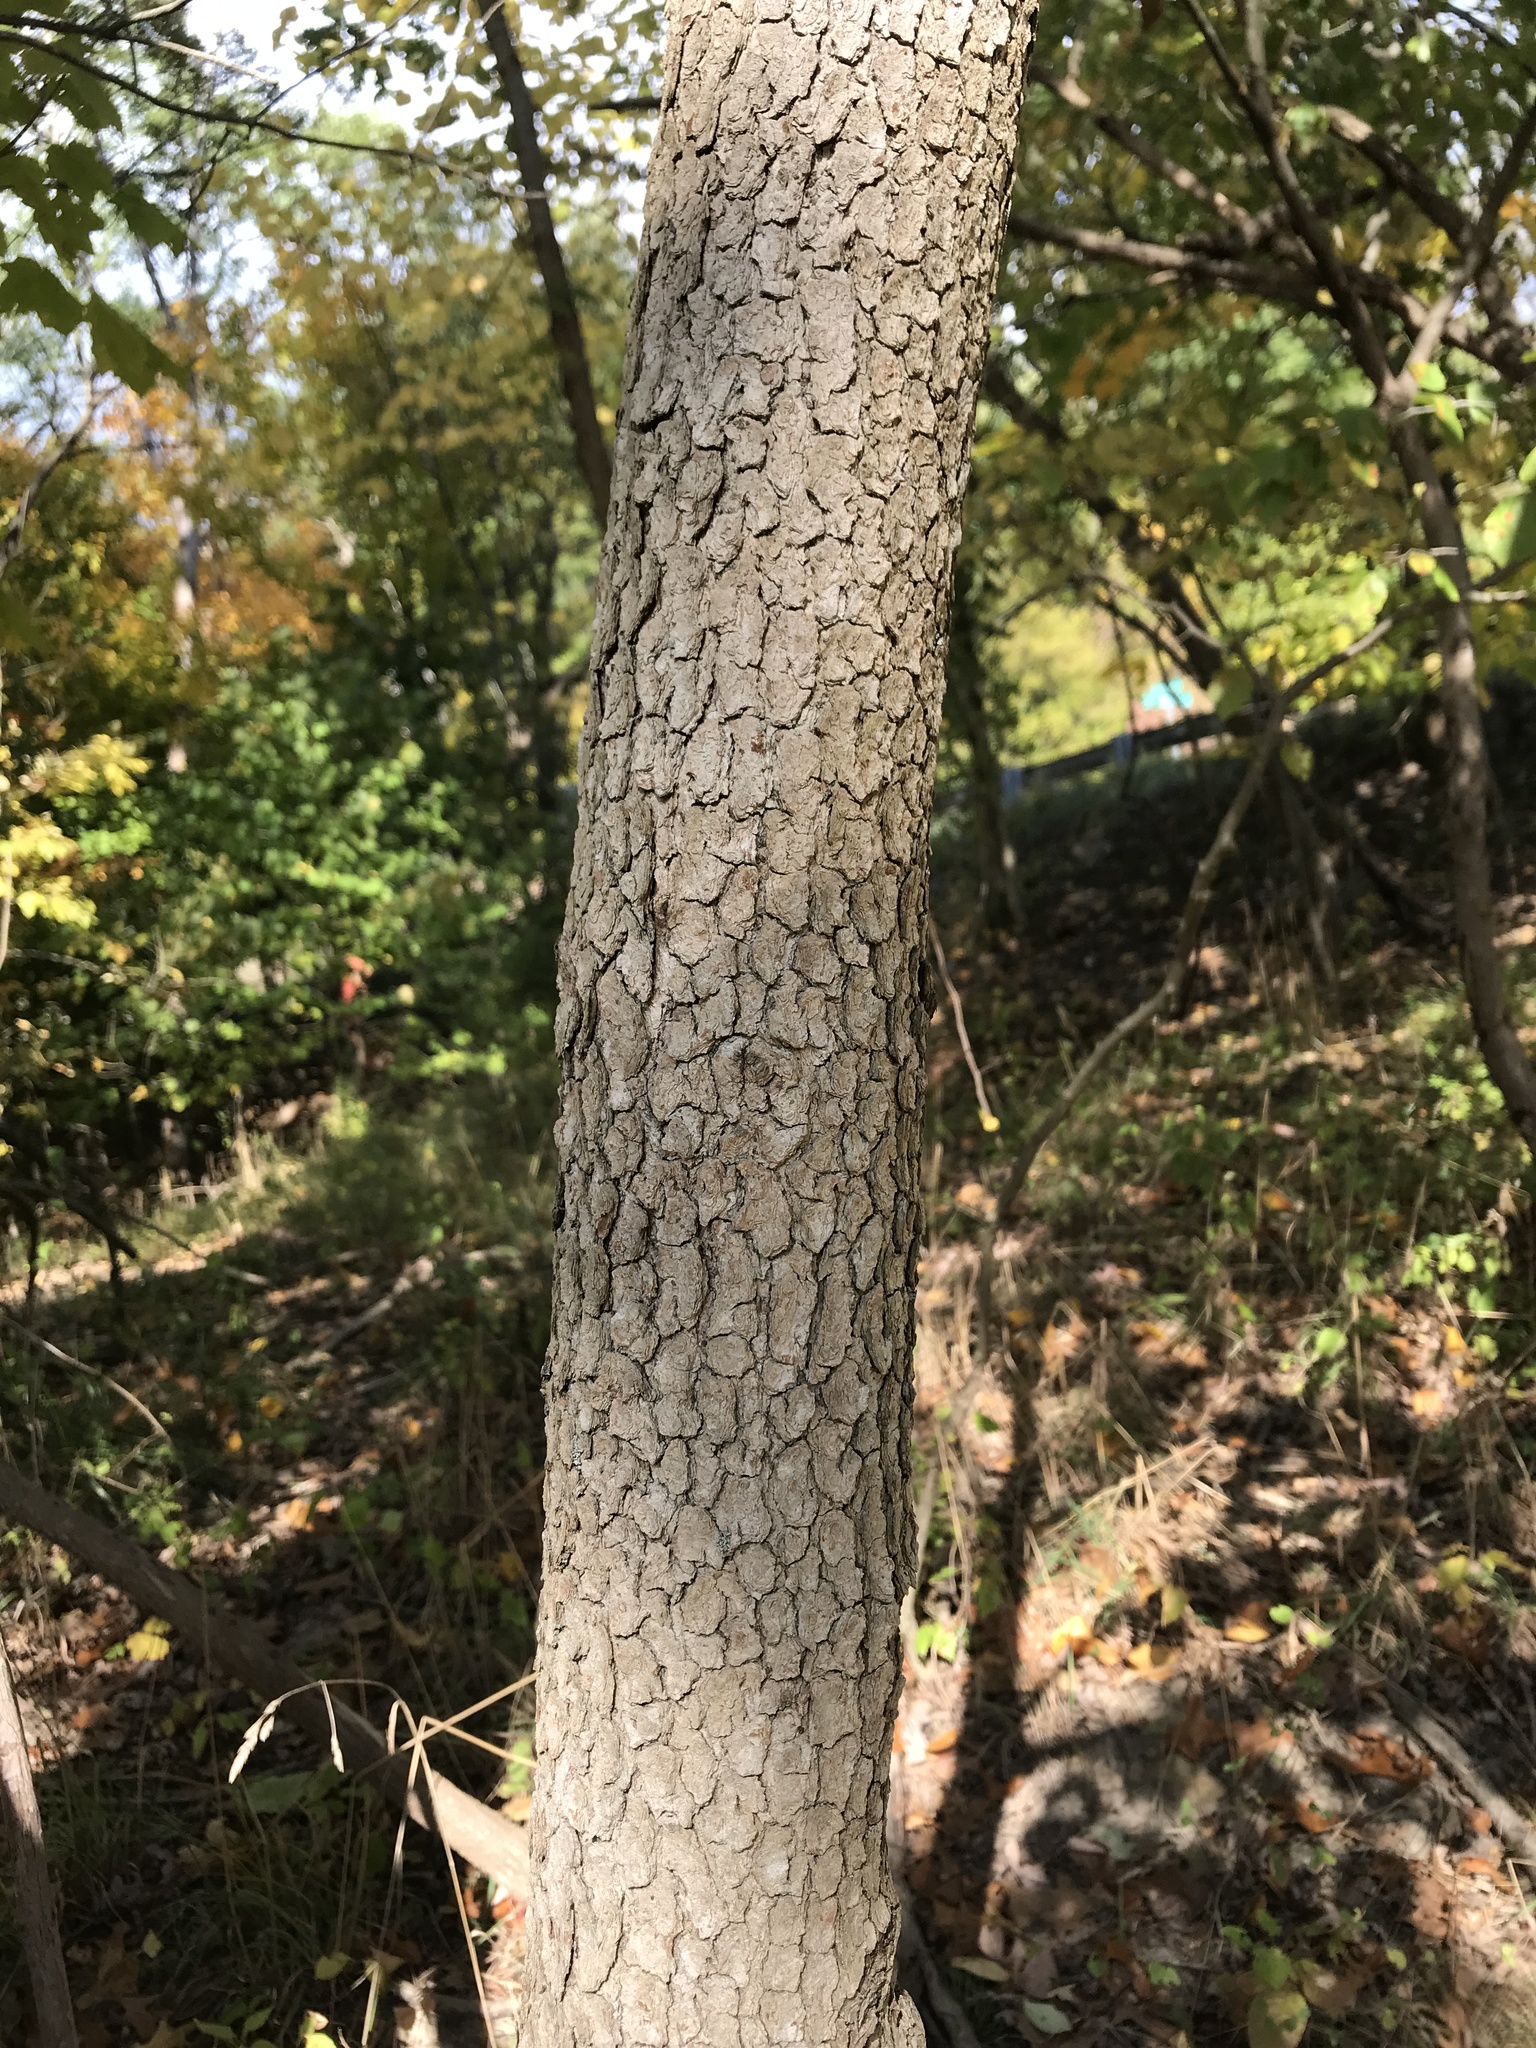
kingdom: Plantae
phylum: Tracheophyta
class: Magnoliopsida
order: Cornales
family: Cornaceae
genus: Cornus
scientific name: Cornus florida
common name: Flowering dogwood
